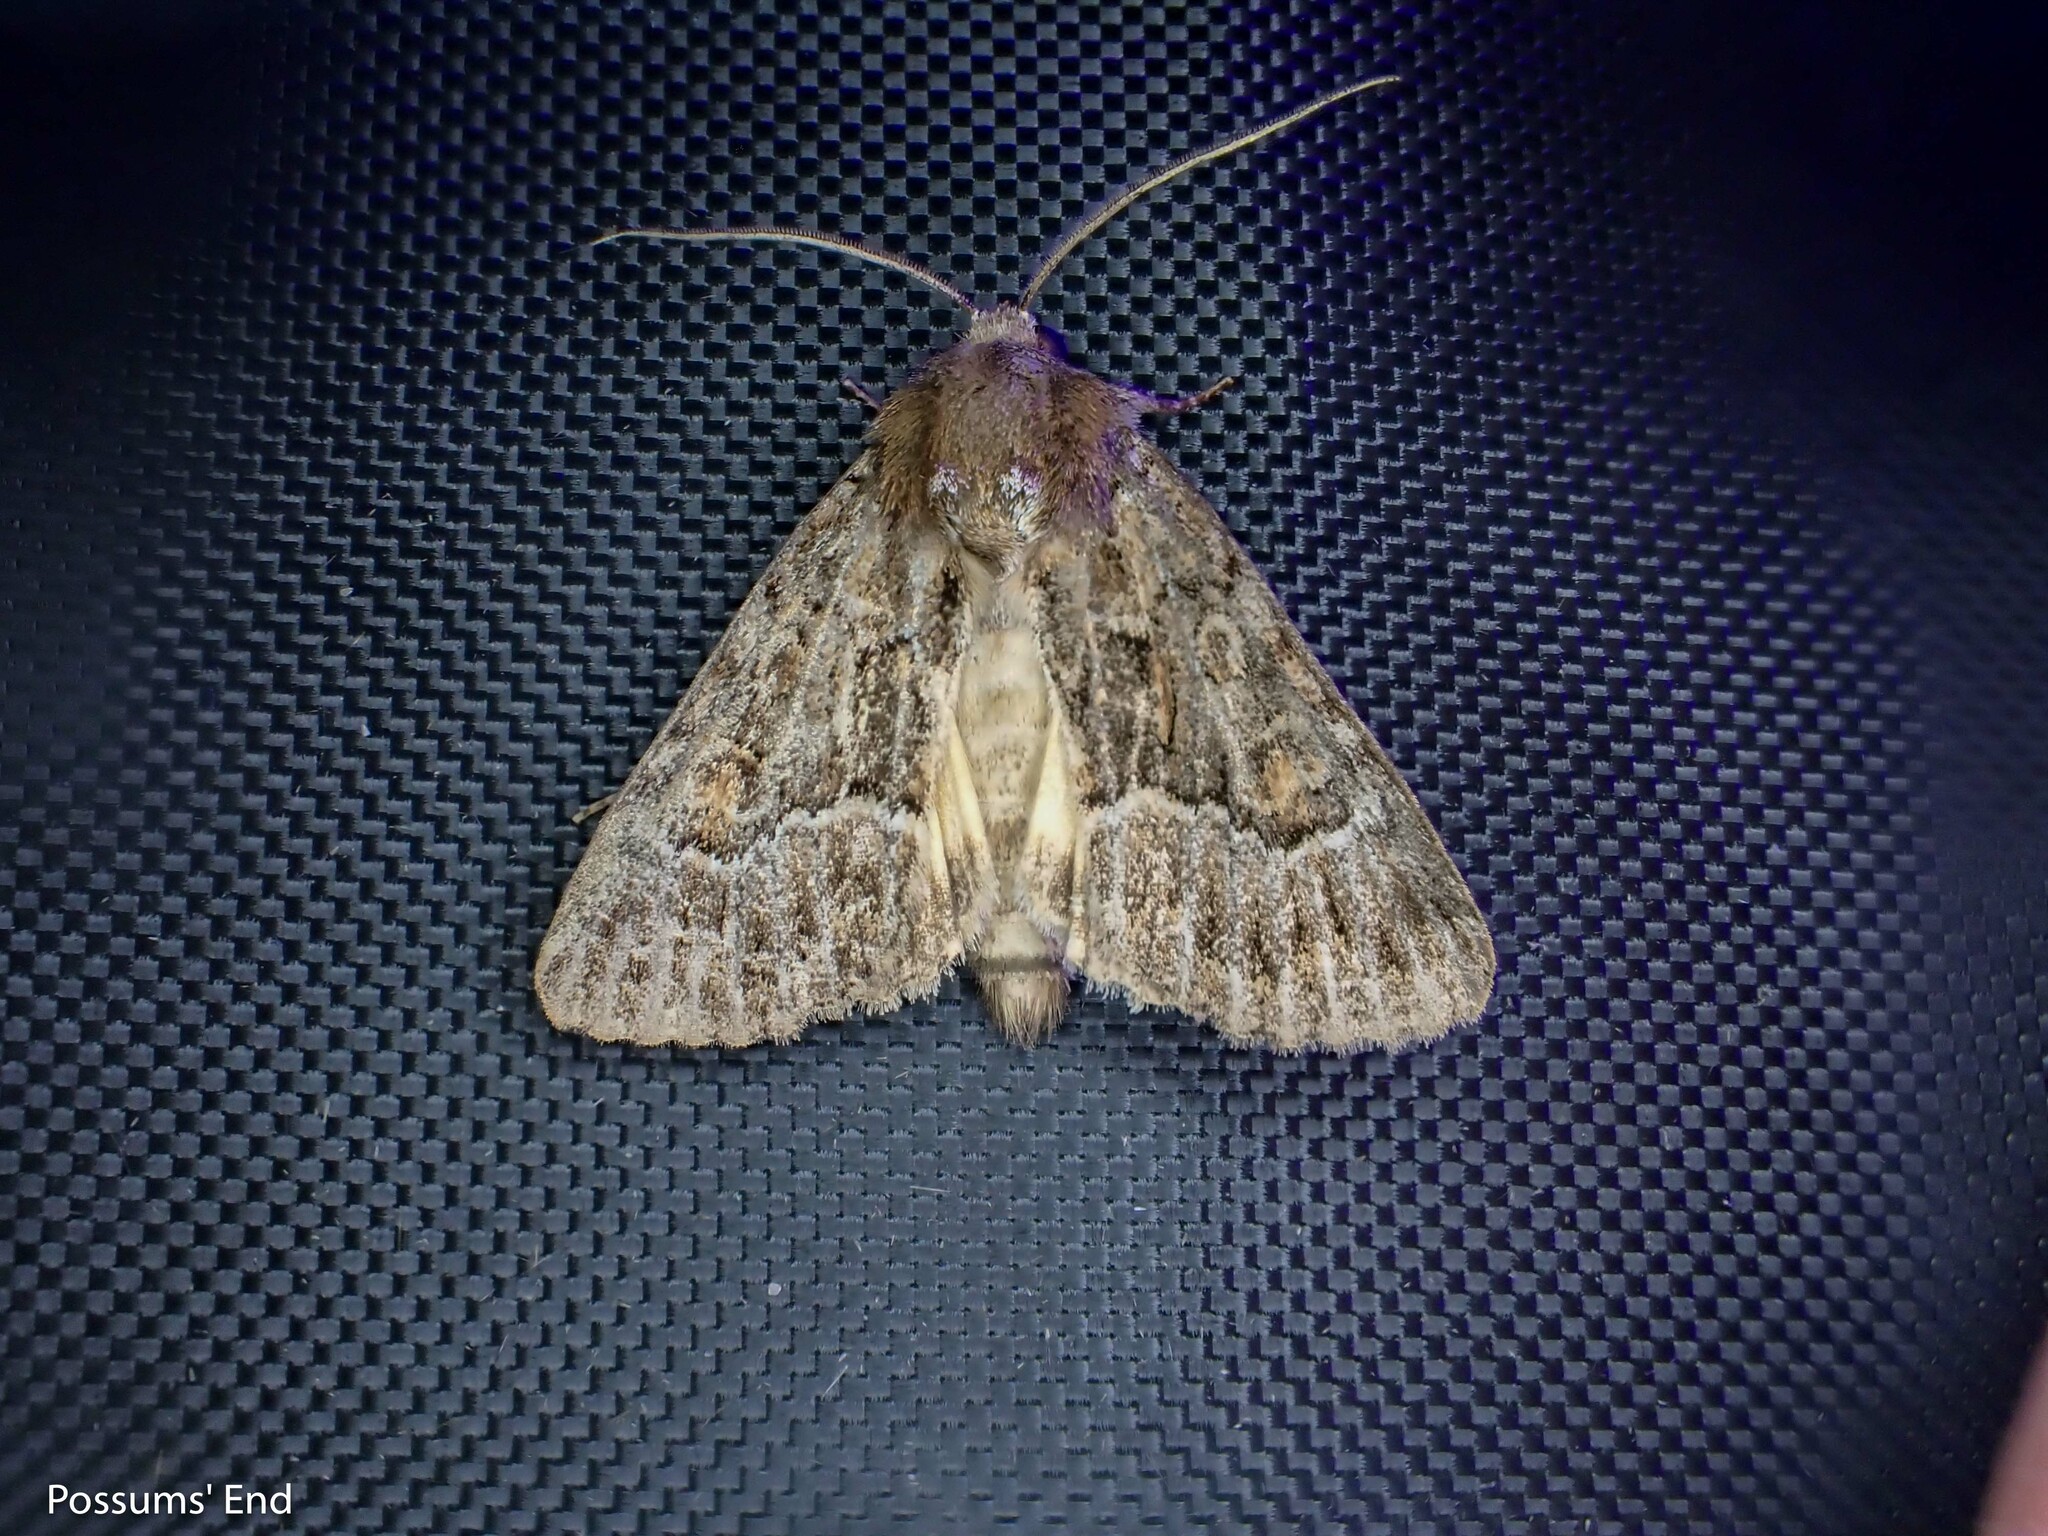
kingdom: Animalia
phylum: Arthropoda
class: Insecta
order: Lepidoptera
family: Noctuidae
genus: Thalpophila
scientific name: Thalpophila matura
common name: Straw underwing
